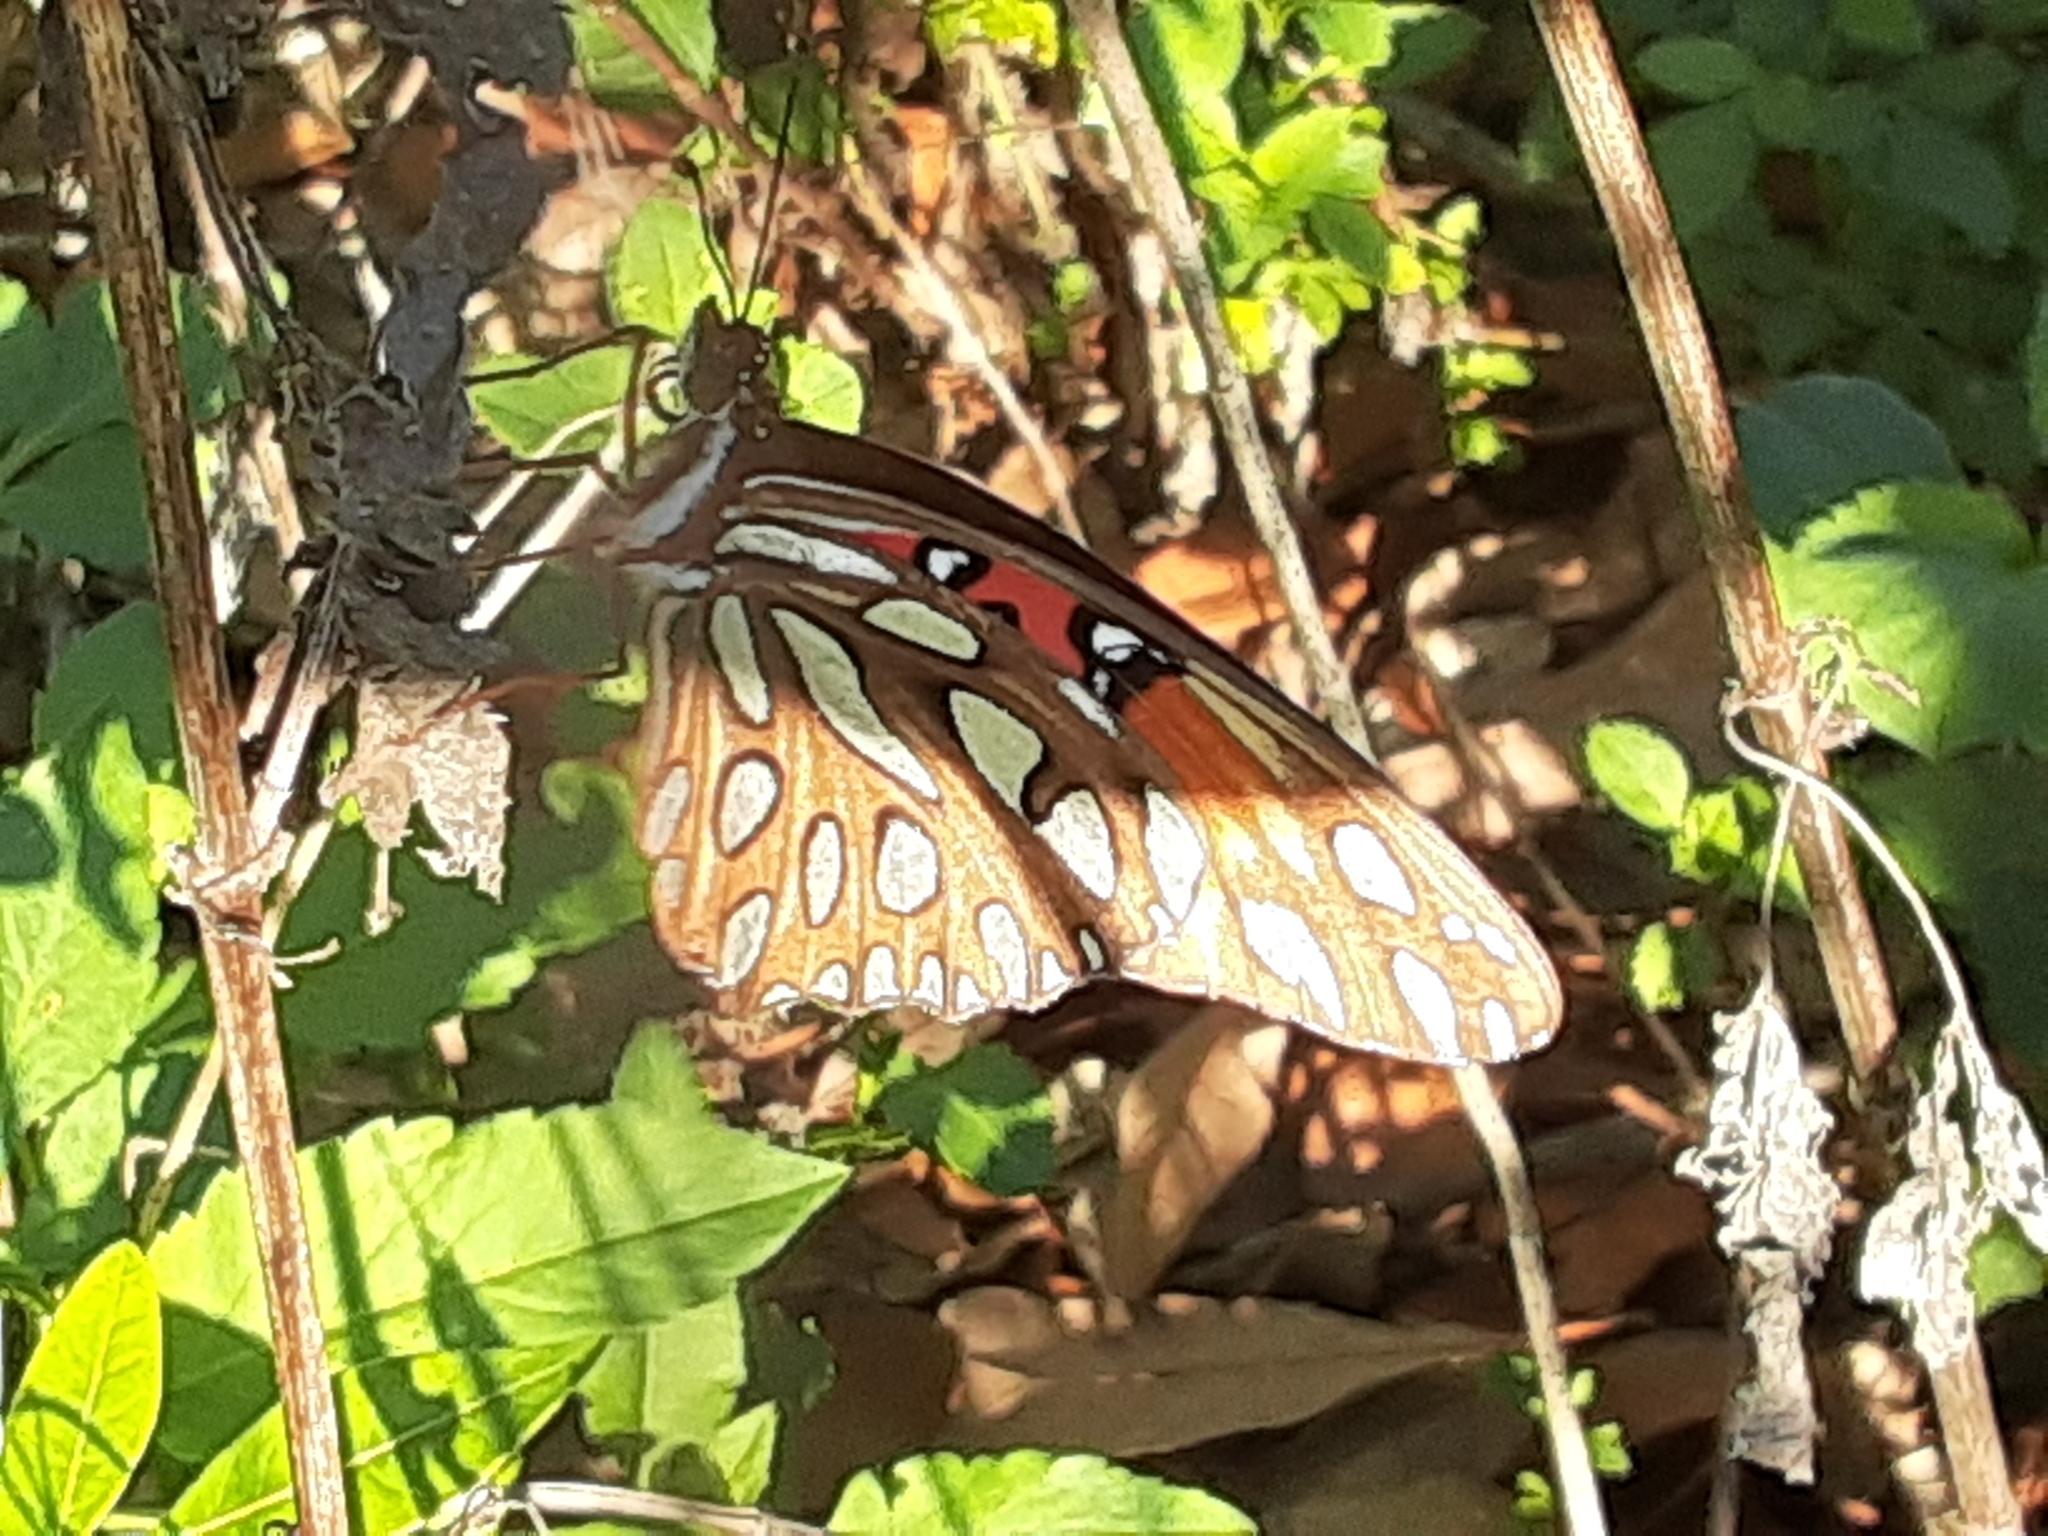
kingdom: Animalia
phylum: Arthropoda
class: Insecta
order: Lepidoptera
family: Nymphalidae
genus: Dione
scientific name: Dione vanillae
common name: Gulf fritillary
